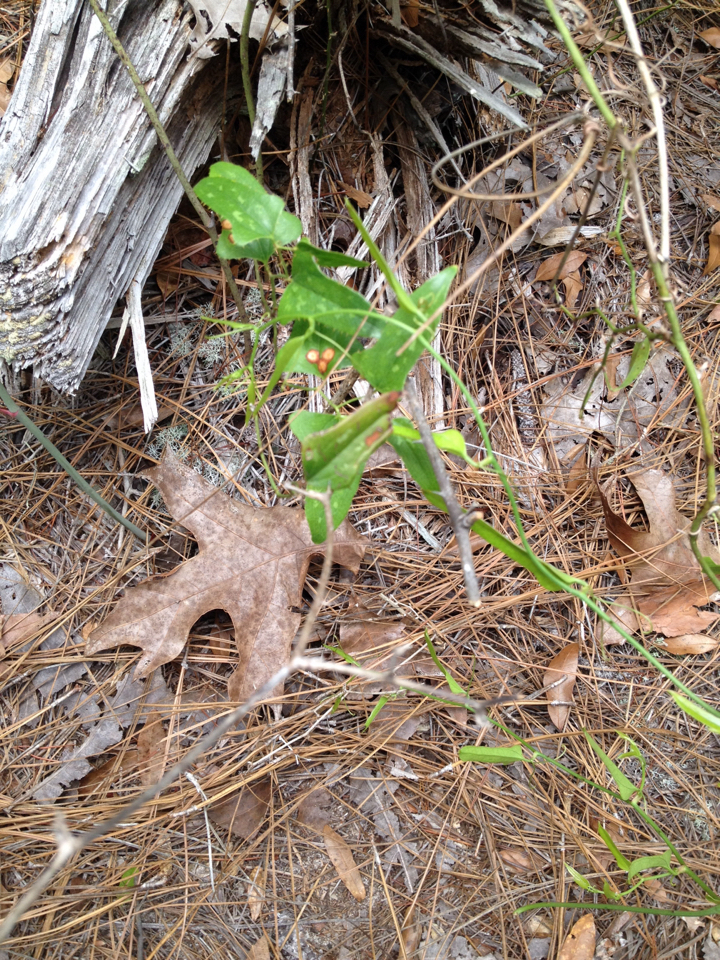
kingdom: Plantae
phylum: Tracheophyta
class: Liliopsida
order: Liliales
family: Smilacaceae
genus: Smilax
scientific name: Smilax bona-nox
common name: Catbrier
